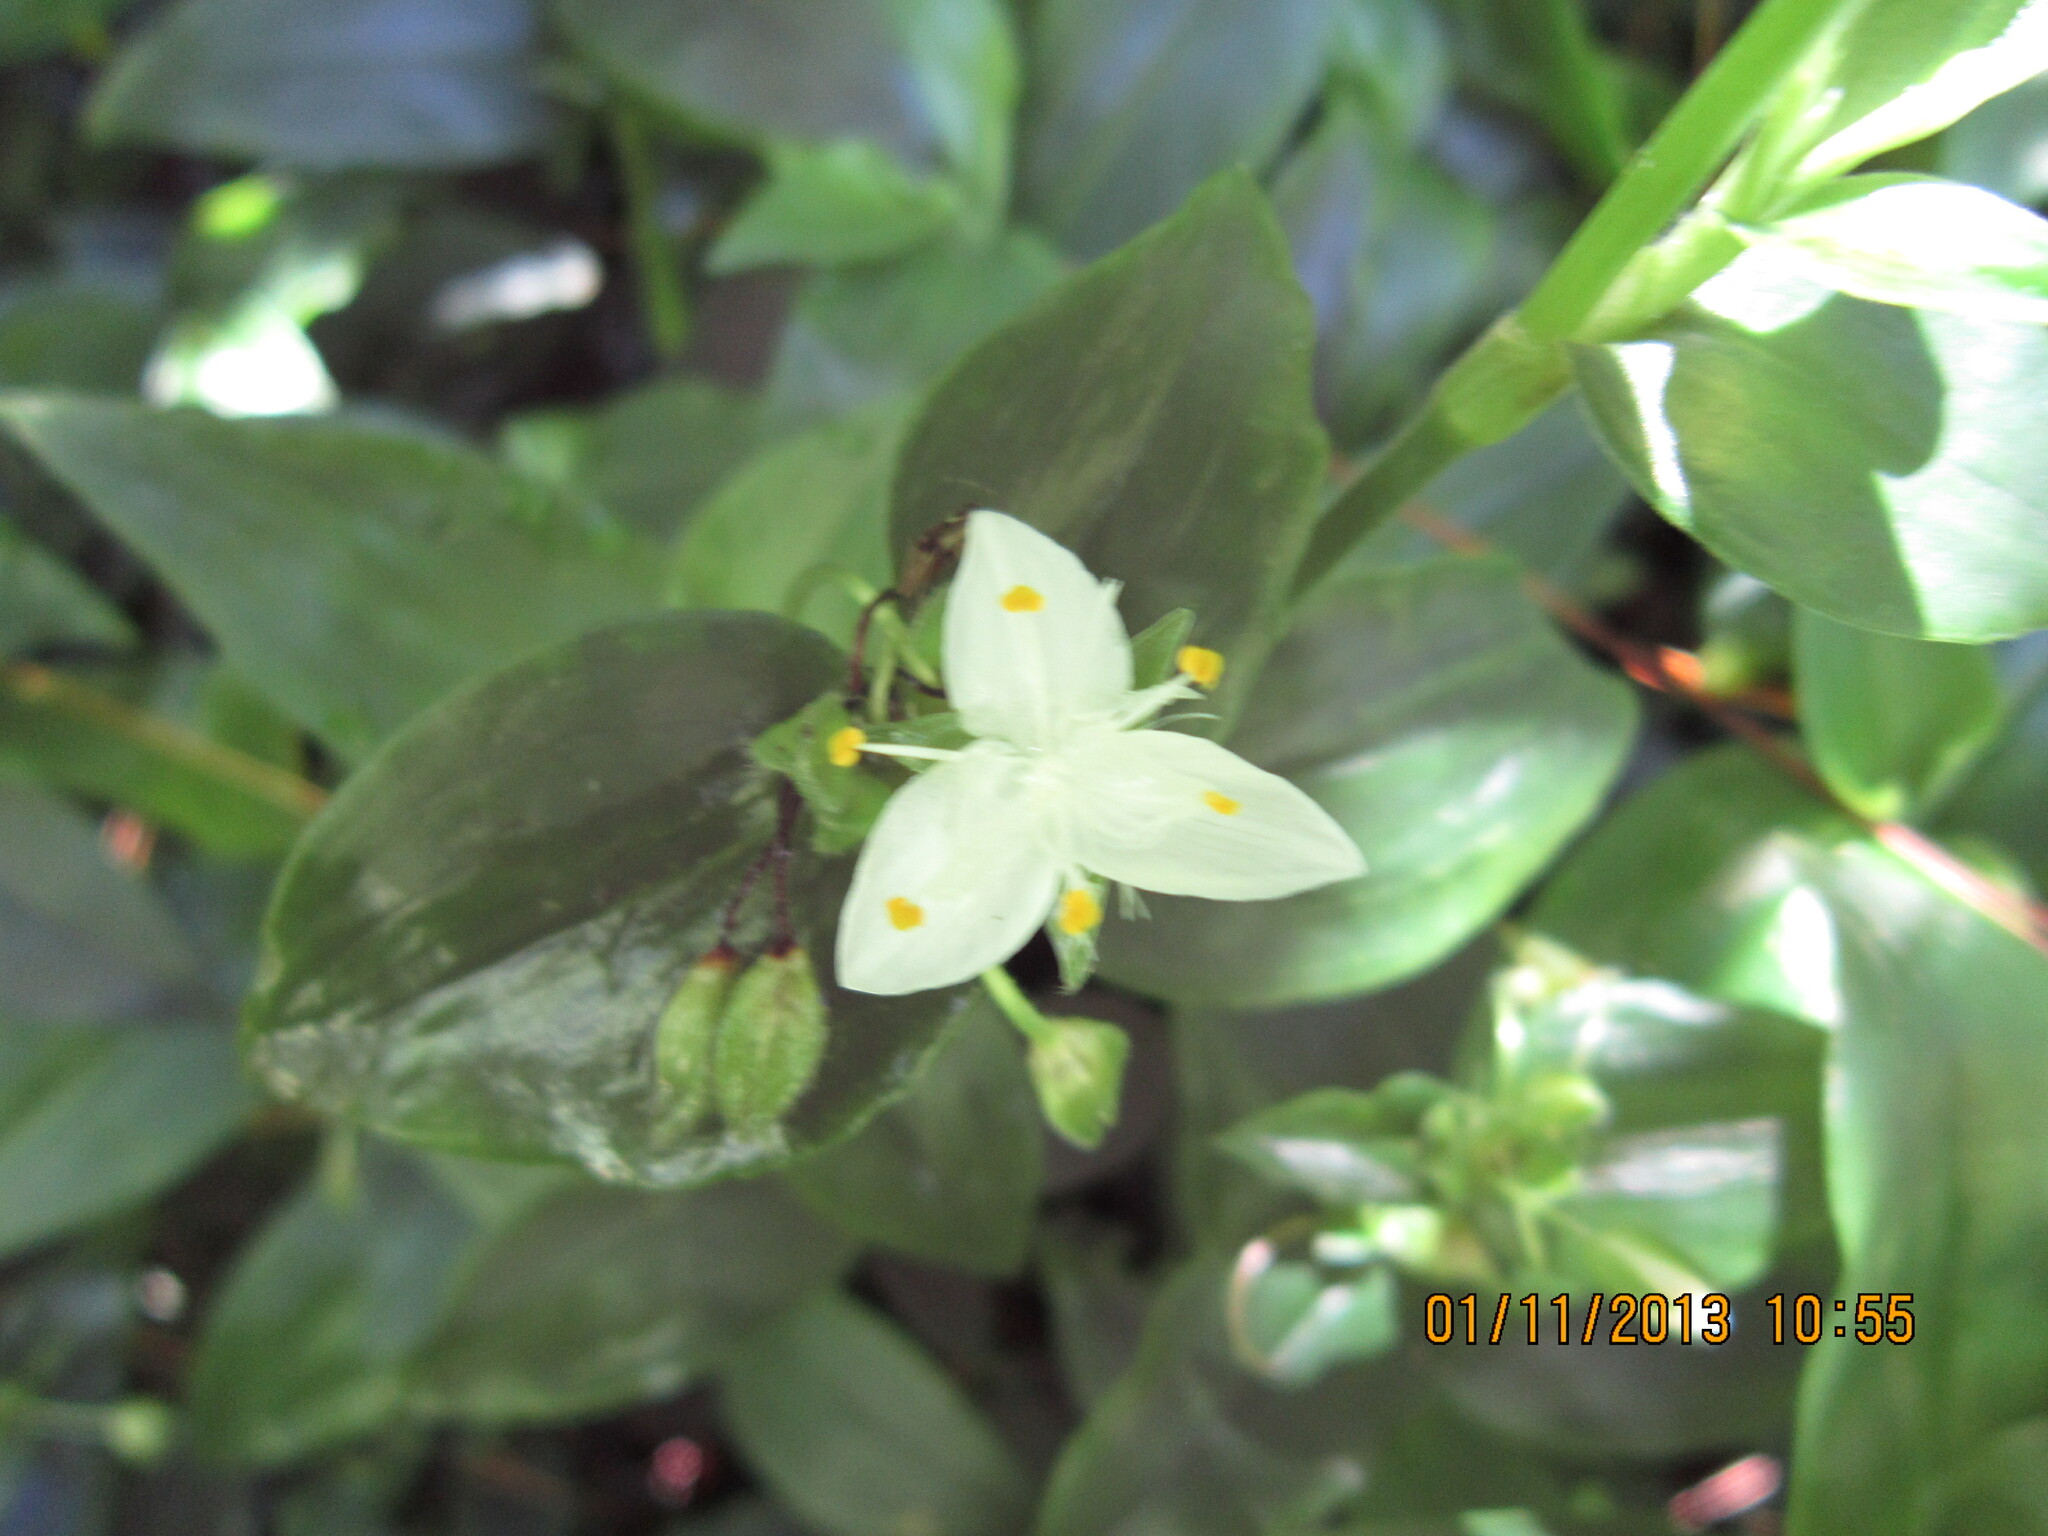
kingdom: Plantae
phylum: Tracheophyta
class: Liliopsida
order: Commelinales
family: Commelinaceae
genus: Tradescantia
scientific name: Tradescantia fluminensis
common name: Wandering-jew
